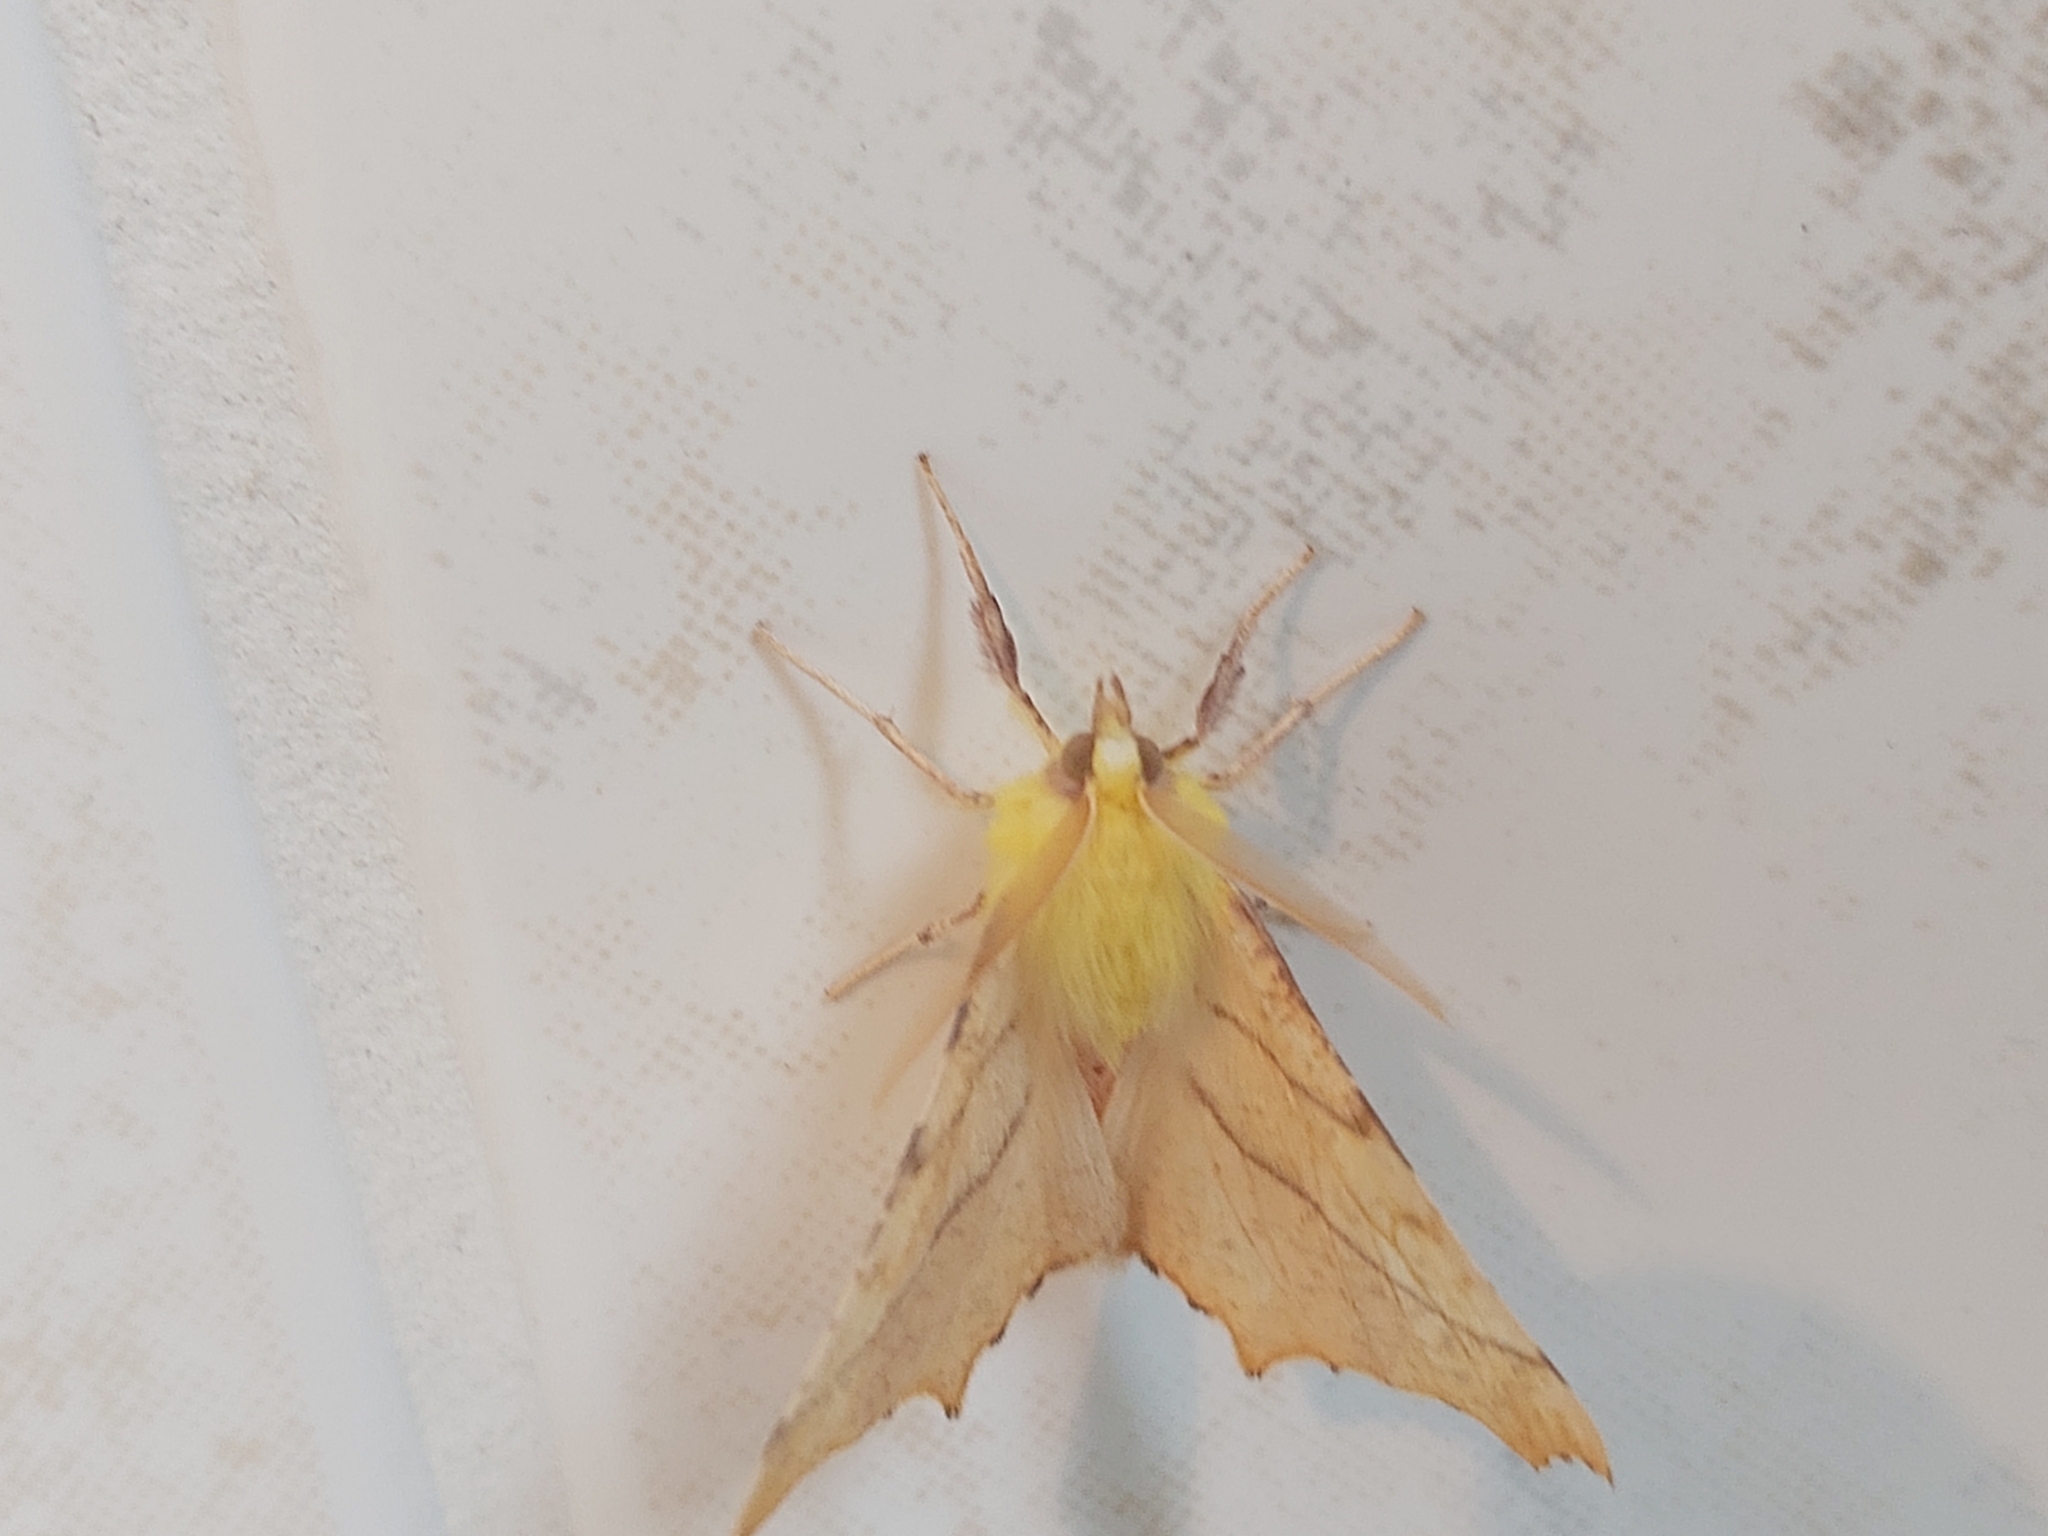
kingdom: Animalia
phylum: Arthropoda
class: Insecta
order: Lepidoptera
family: Geometridae
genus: Ennomos
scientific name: Ennomos alniaria
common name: Canary-shouldered thorn
